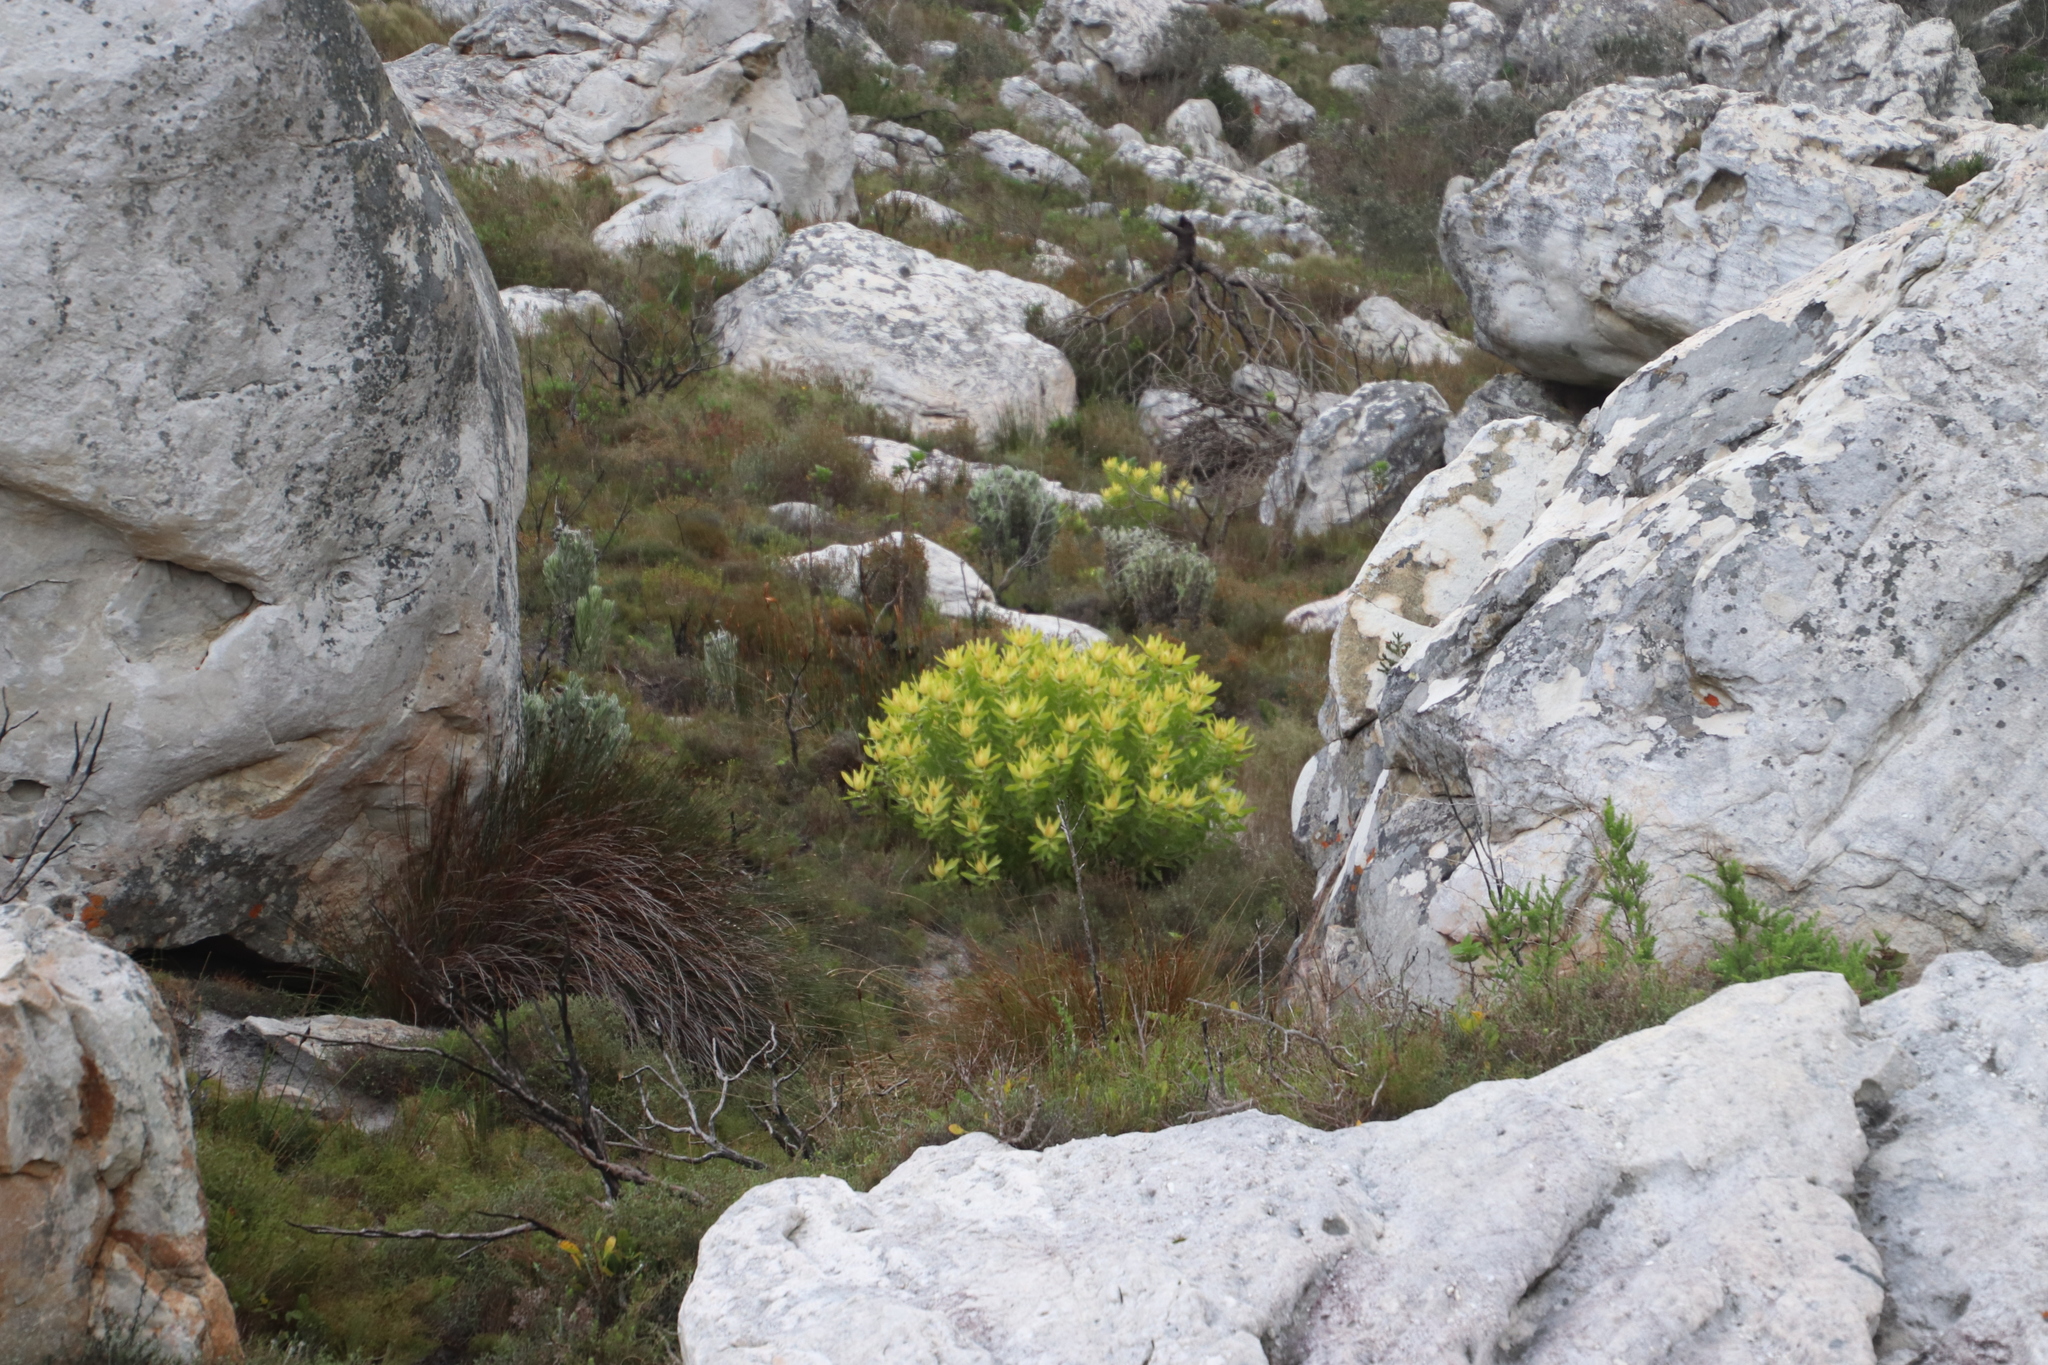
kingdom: Plantae
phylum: Tracheophyta
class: Magnoliopsida
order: Proteales
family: Proteaceae
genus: Leucadendron
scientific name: Leucadendron laureolum
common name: Golden sunshinebush
